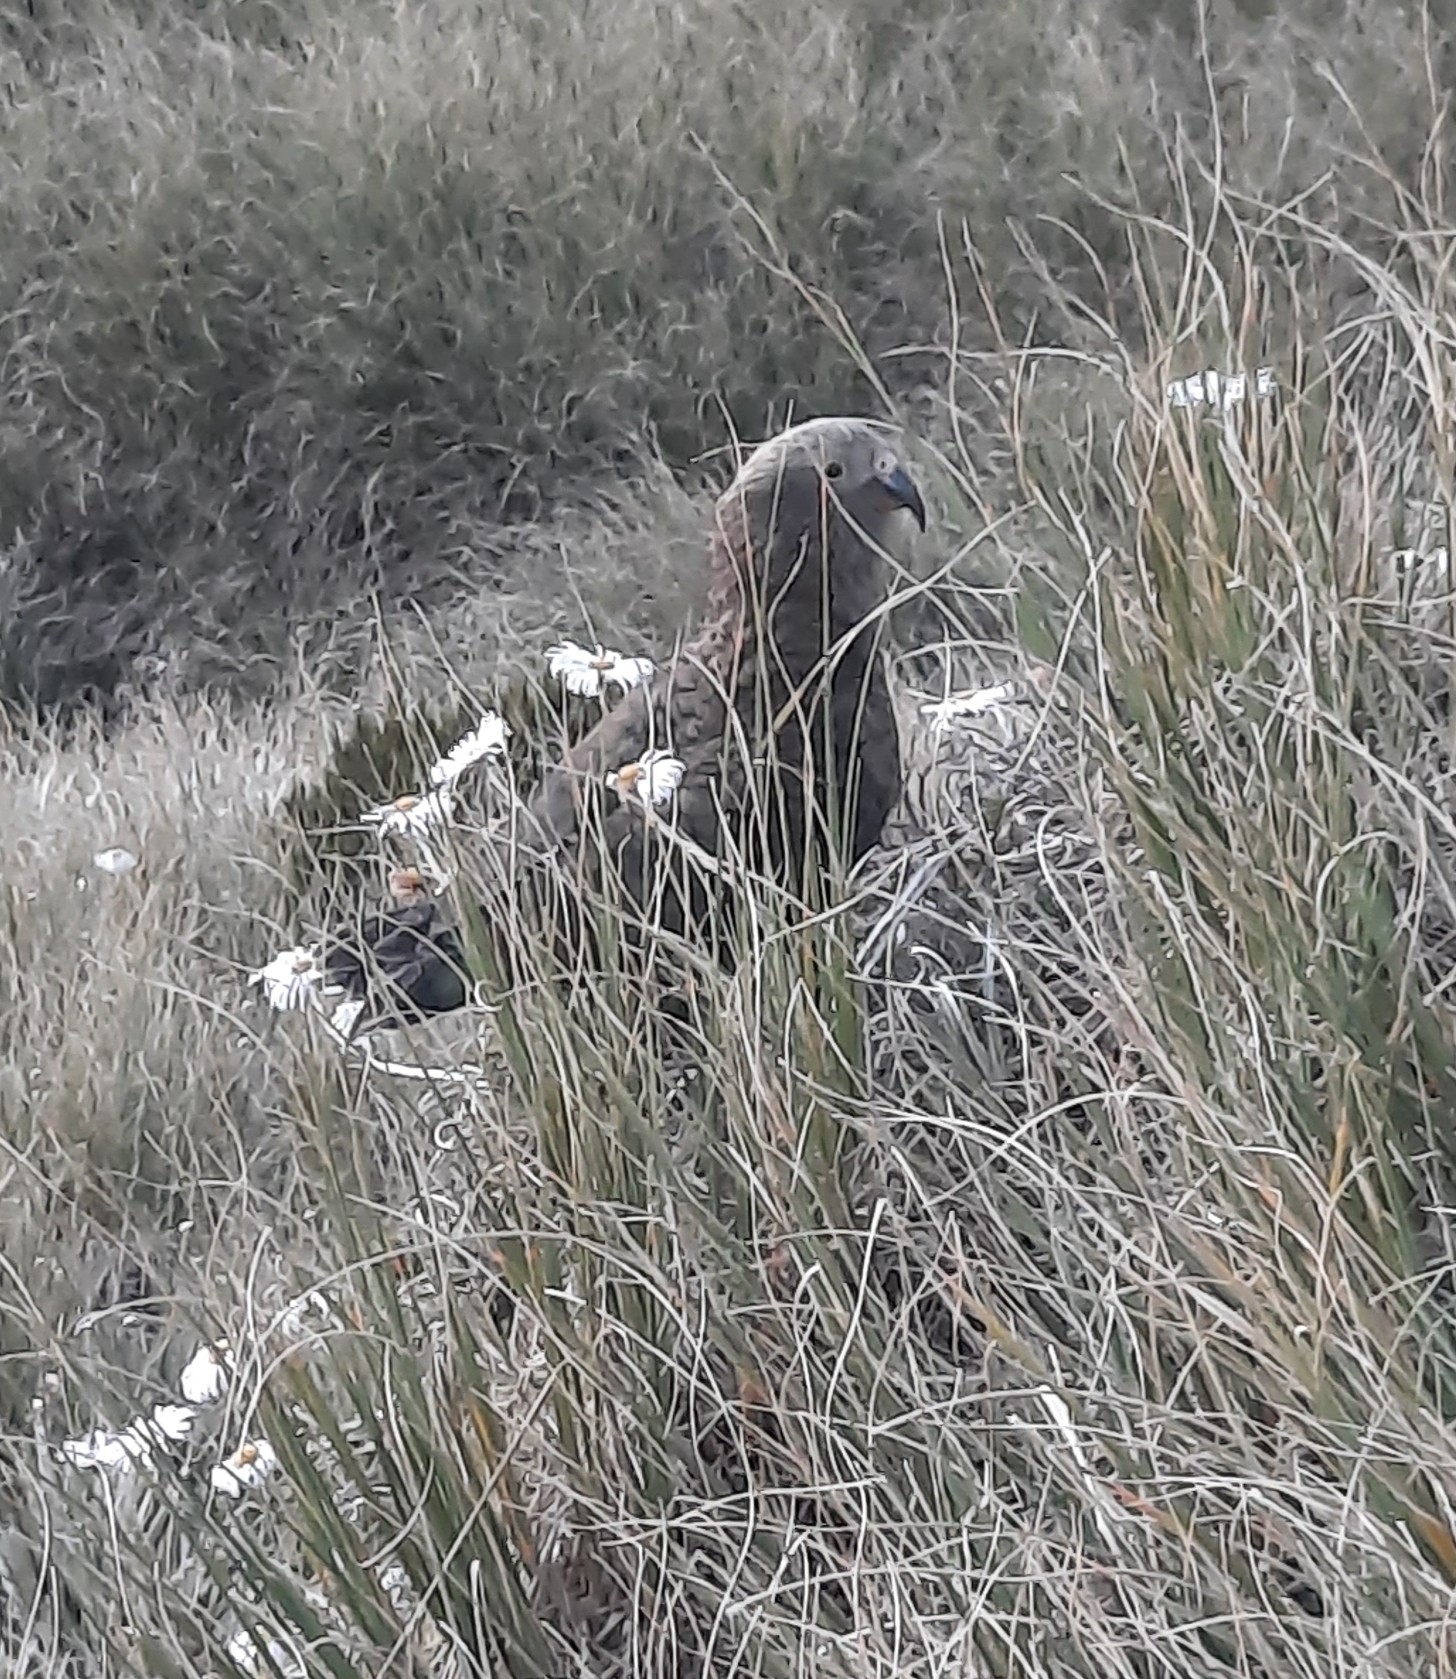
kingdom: Animalia
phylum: Chordata
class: Aves
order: Psittaciformes
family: Psittacidae
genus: Nestor
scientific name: Nestor notabilis
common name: Kea
